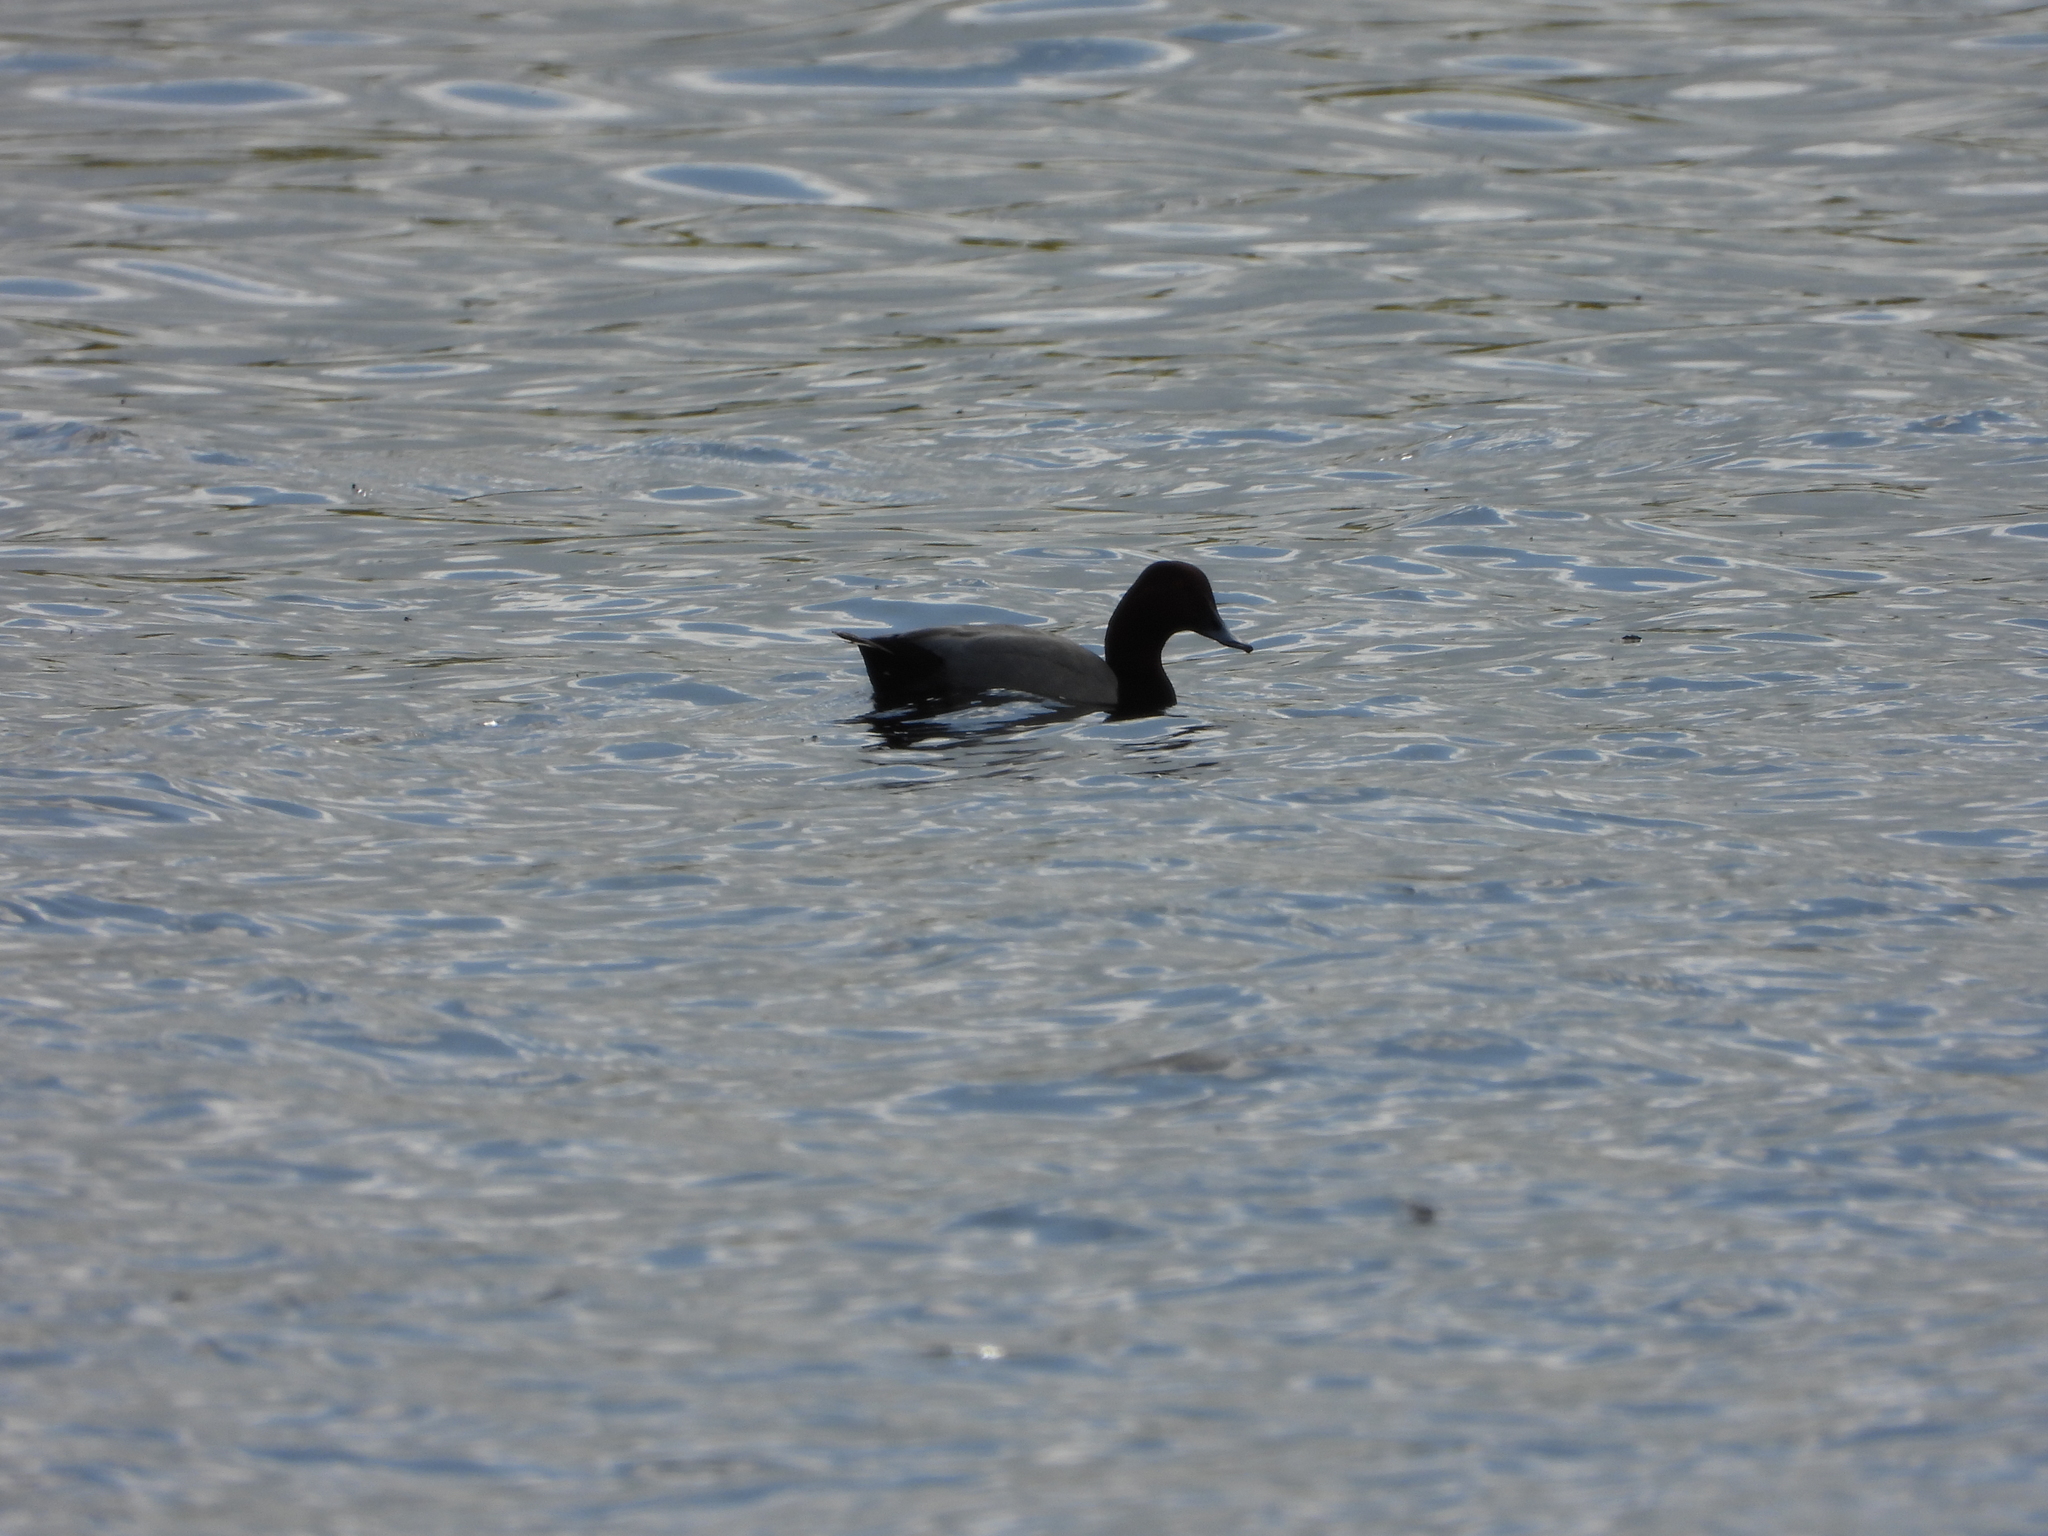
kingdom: Animalia
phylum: Chordata
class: Aves
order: Anseriformes
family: Anatidae
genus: Aythya
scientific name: Aythya ferina
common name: Common pochard
